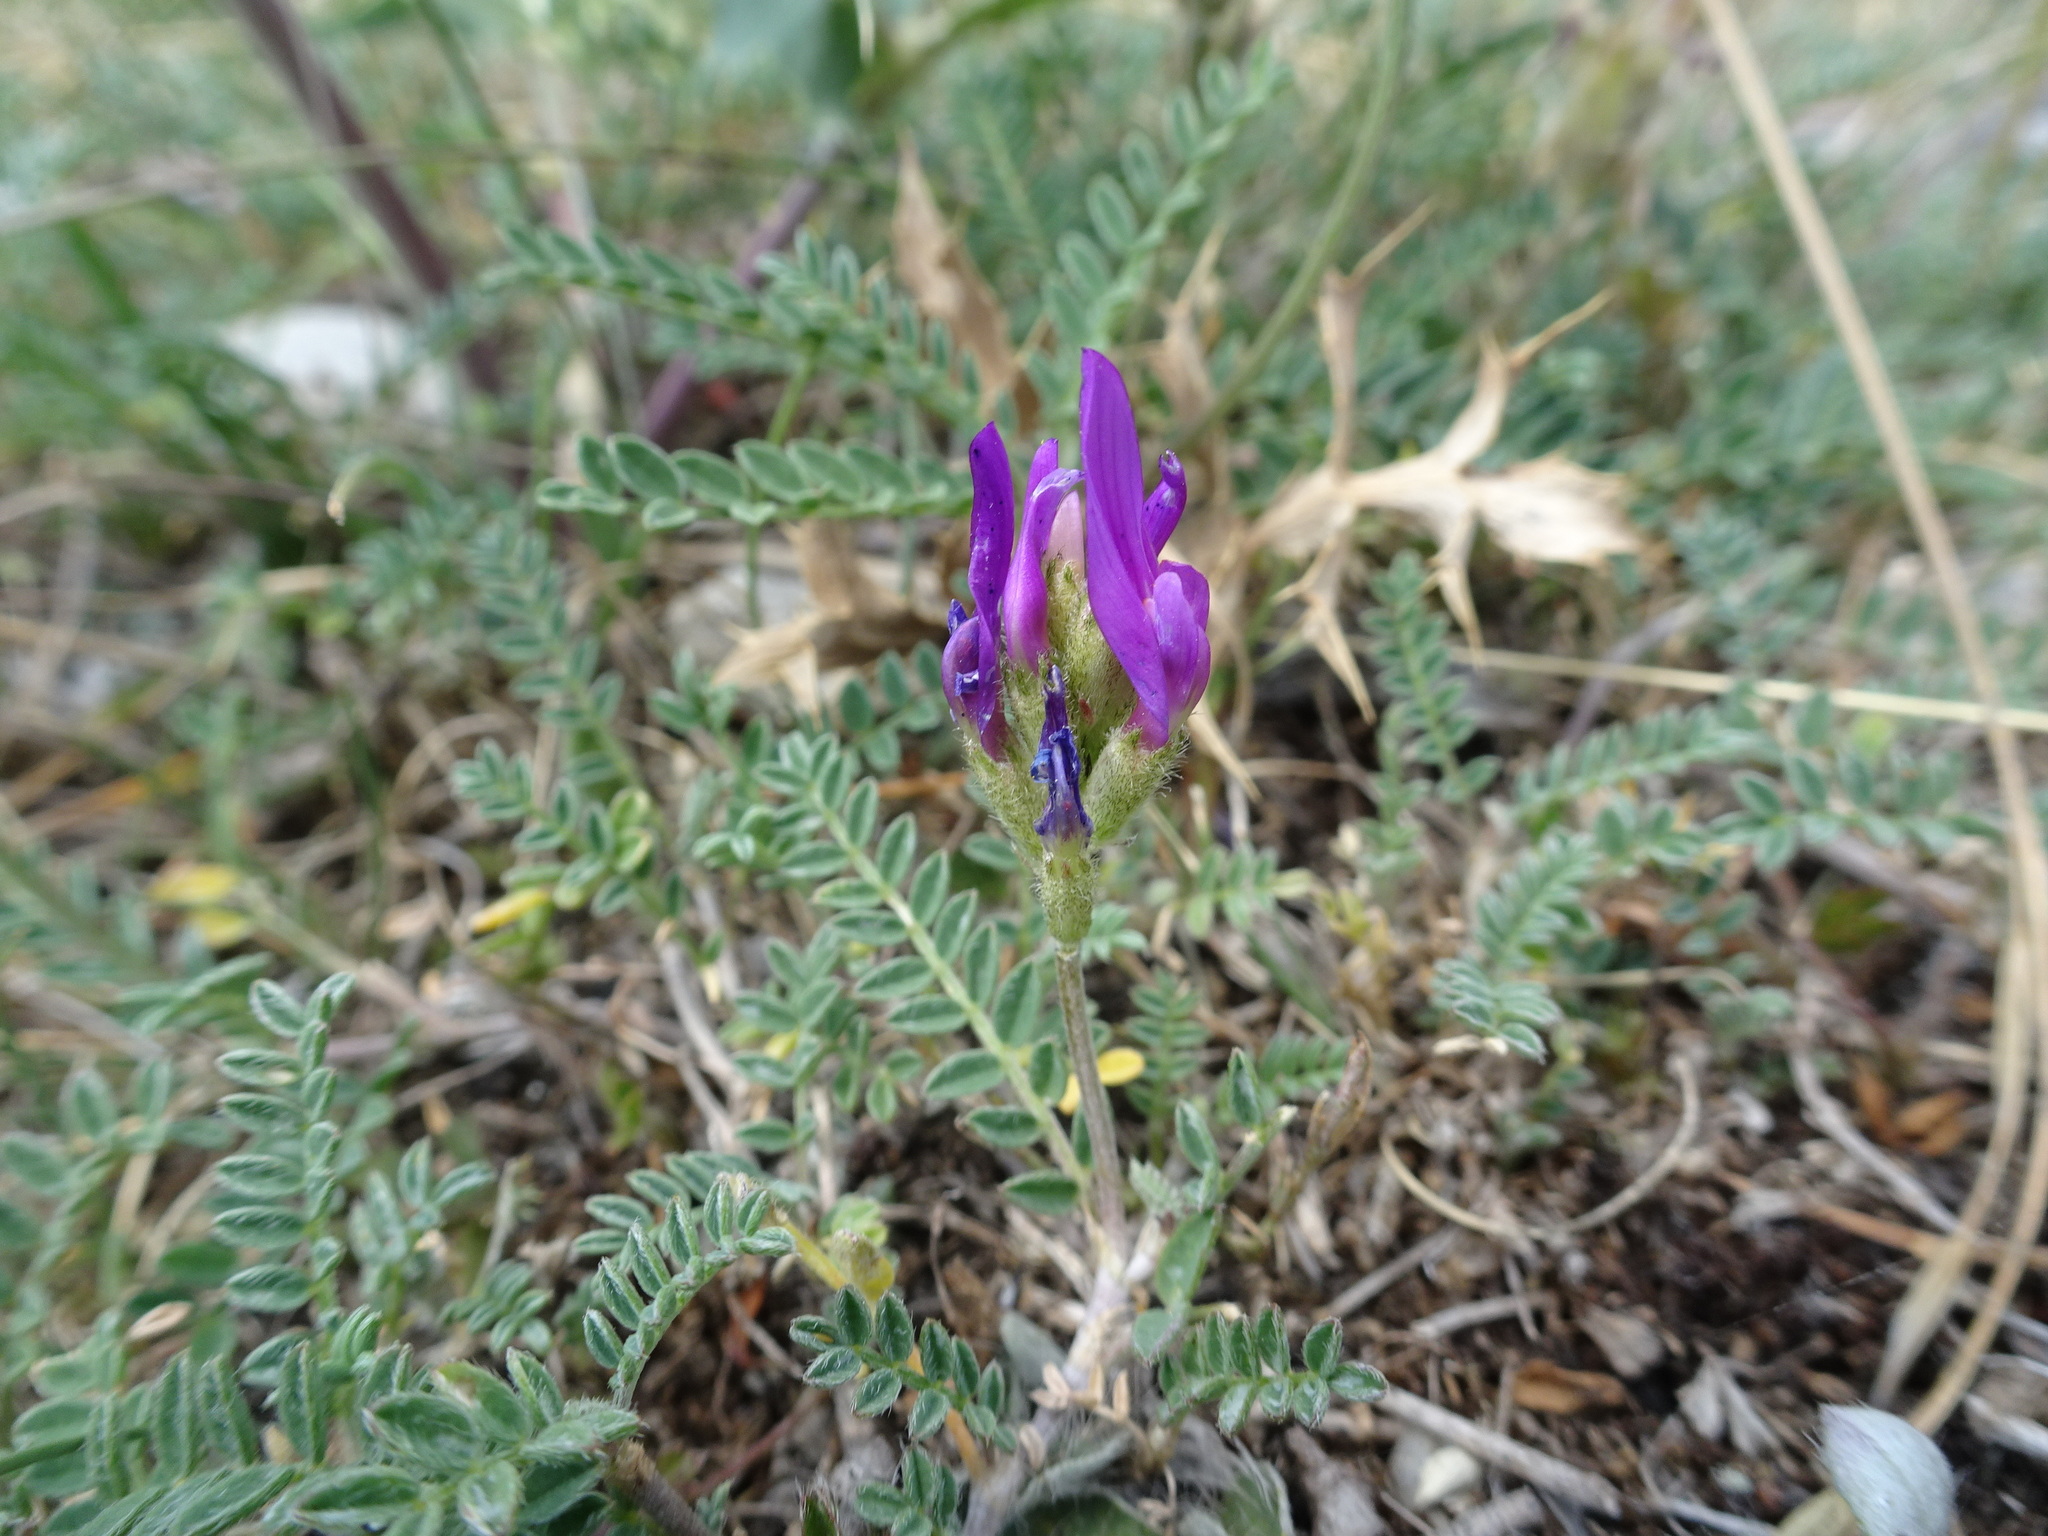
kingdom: Plantae
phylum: Tracheophyta
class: Magnoliopsida
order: Fabales
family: Fabaceae
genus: Astragalus
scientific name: Astragalus onobrychis
